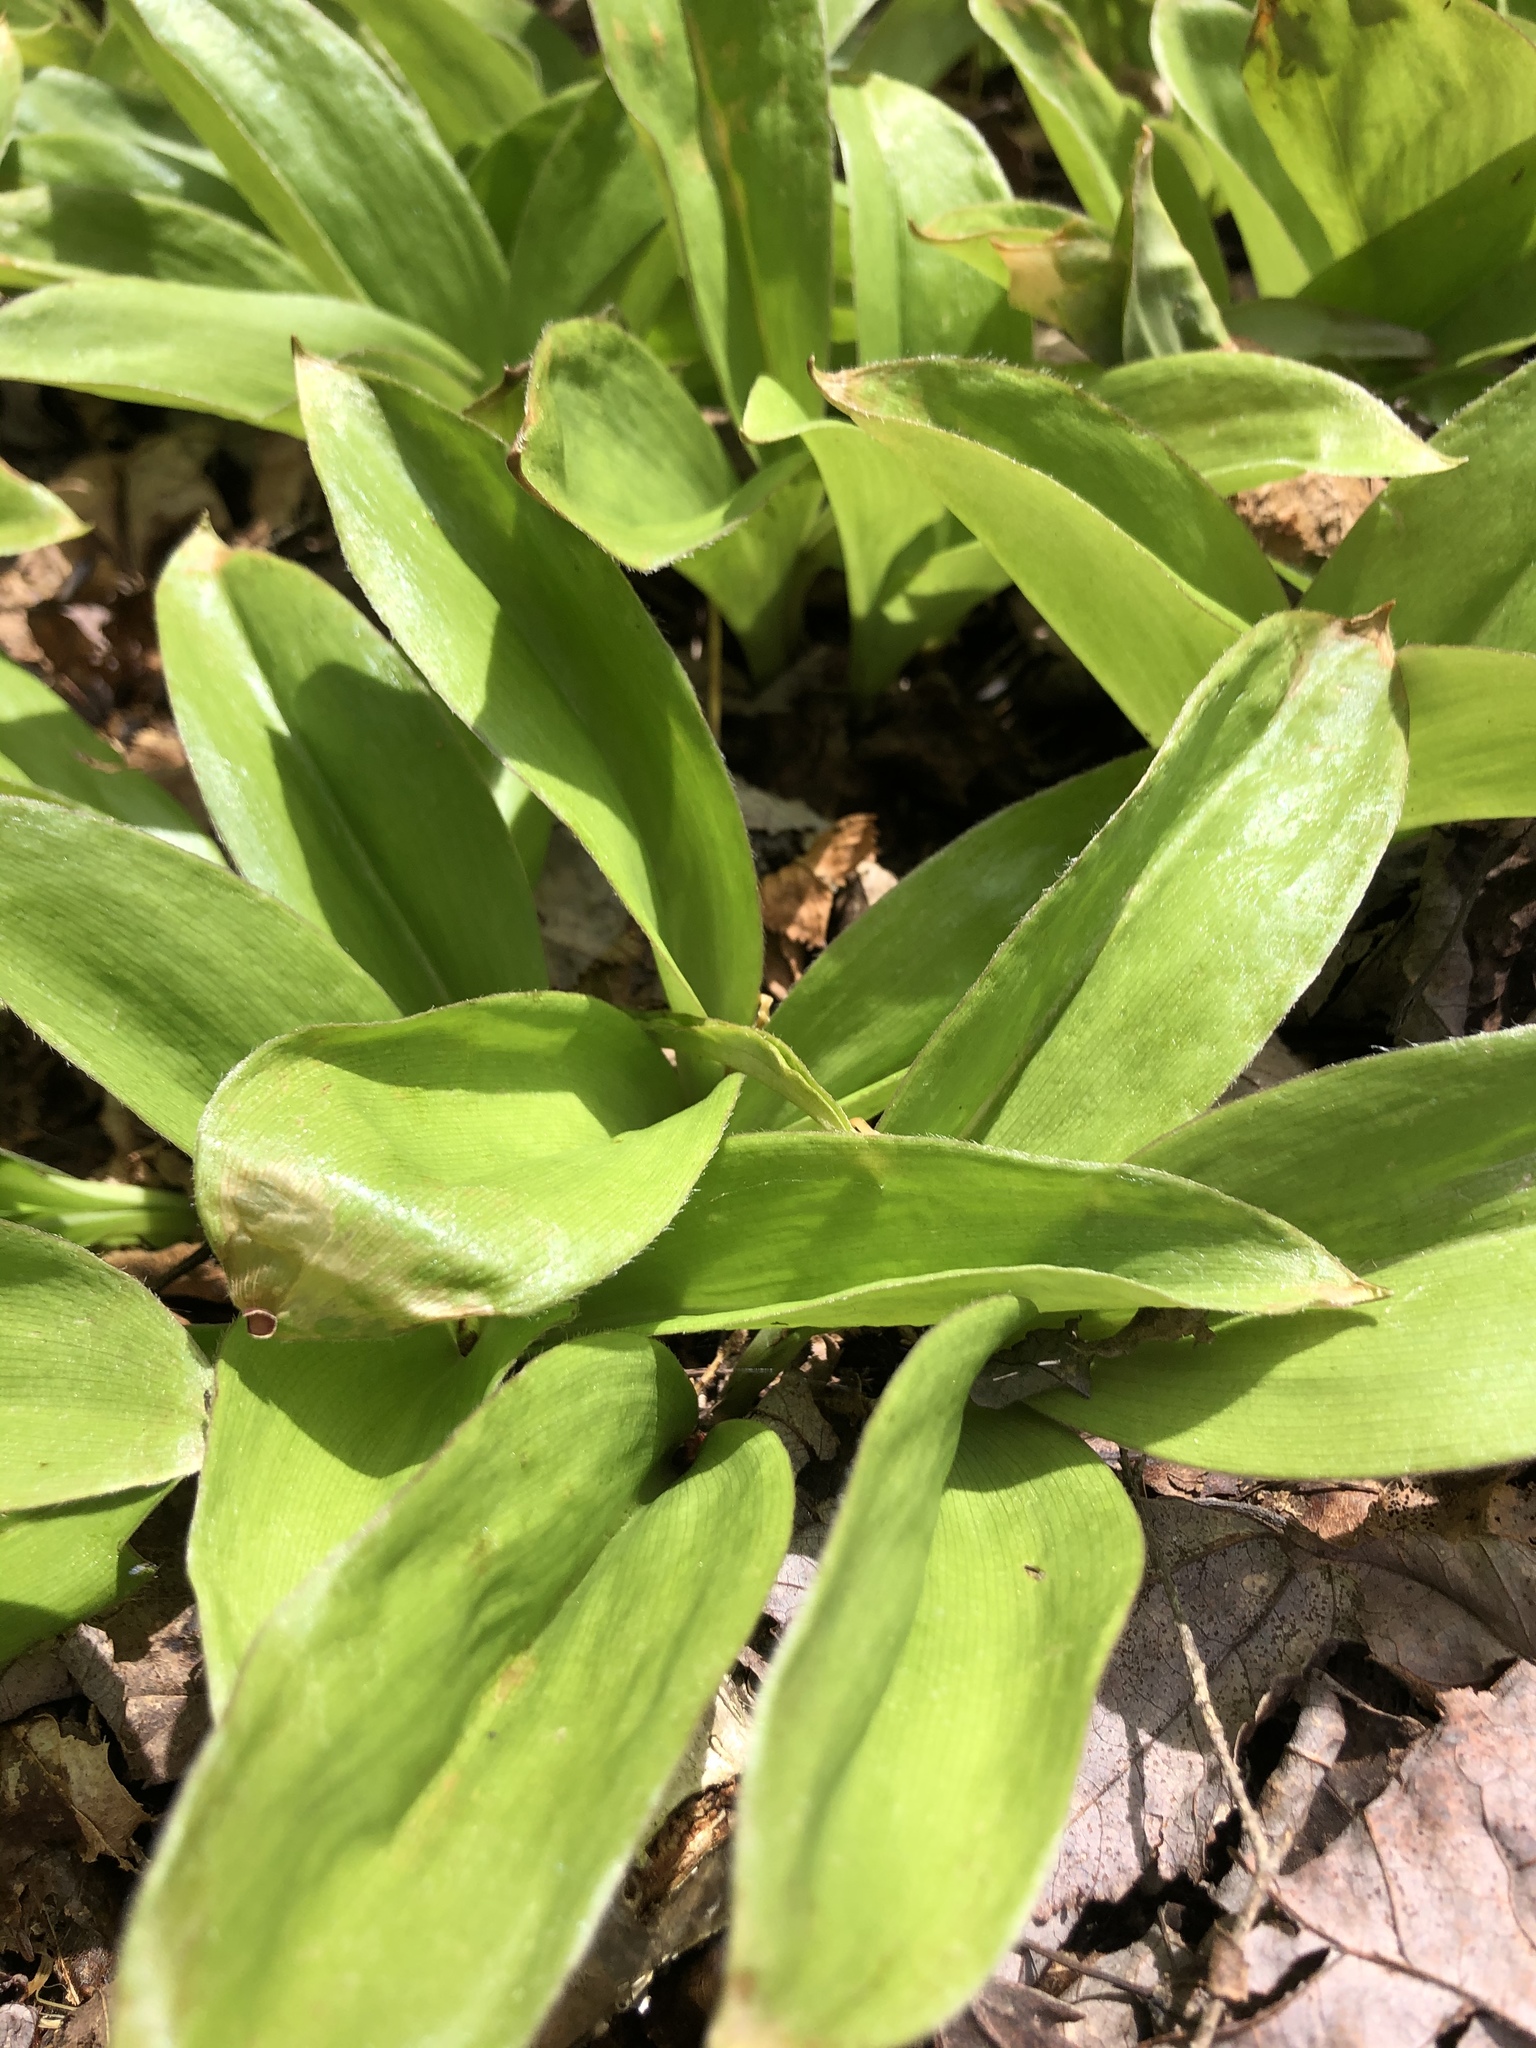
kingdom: Plantae
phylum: Tracheophyta
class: Liliopsida
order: Liliales
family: Liliaceae
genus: Clintonia
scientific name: Clintonia borealis
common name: Yellow clintonia
